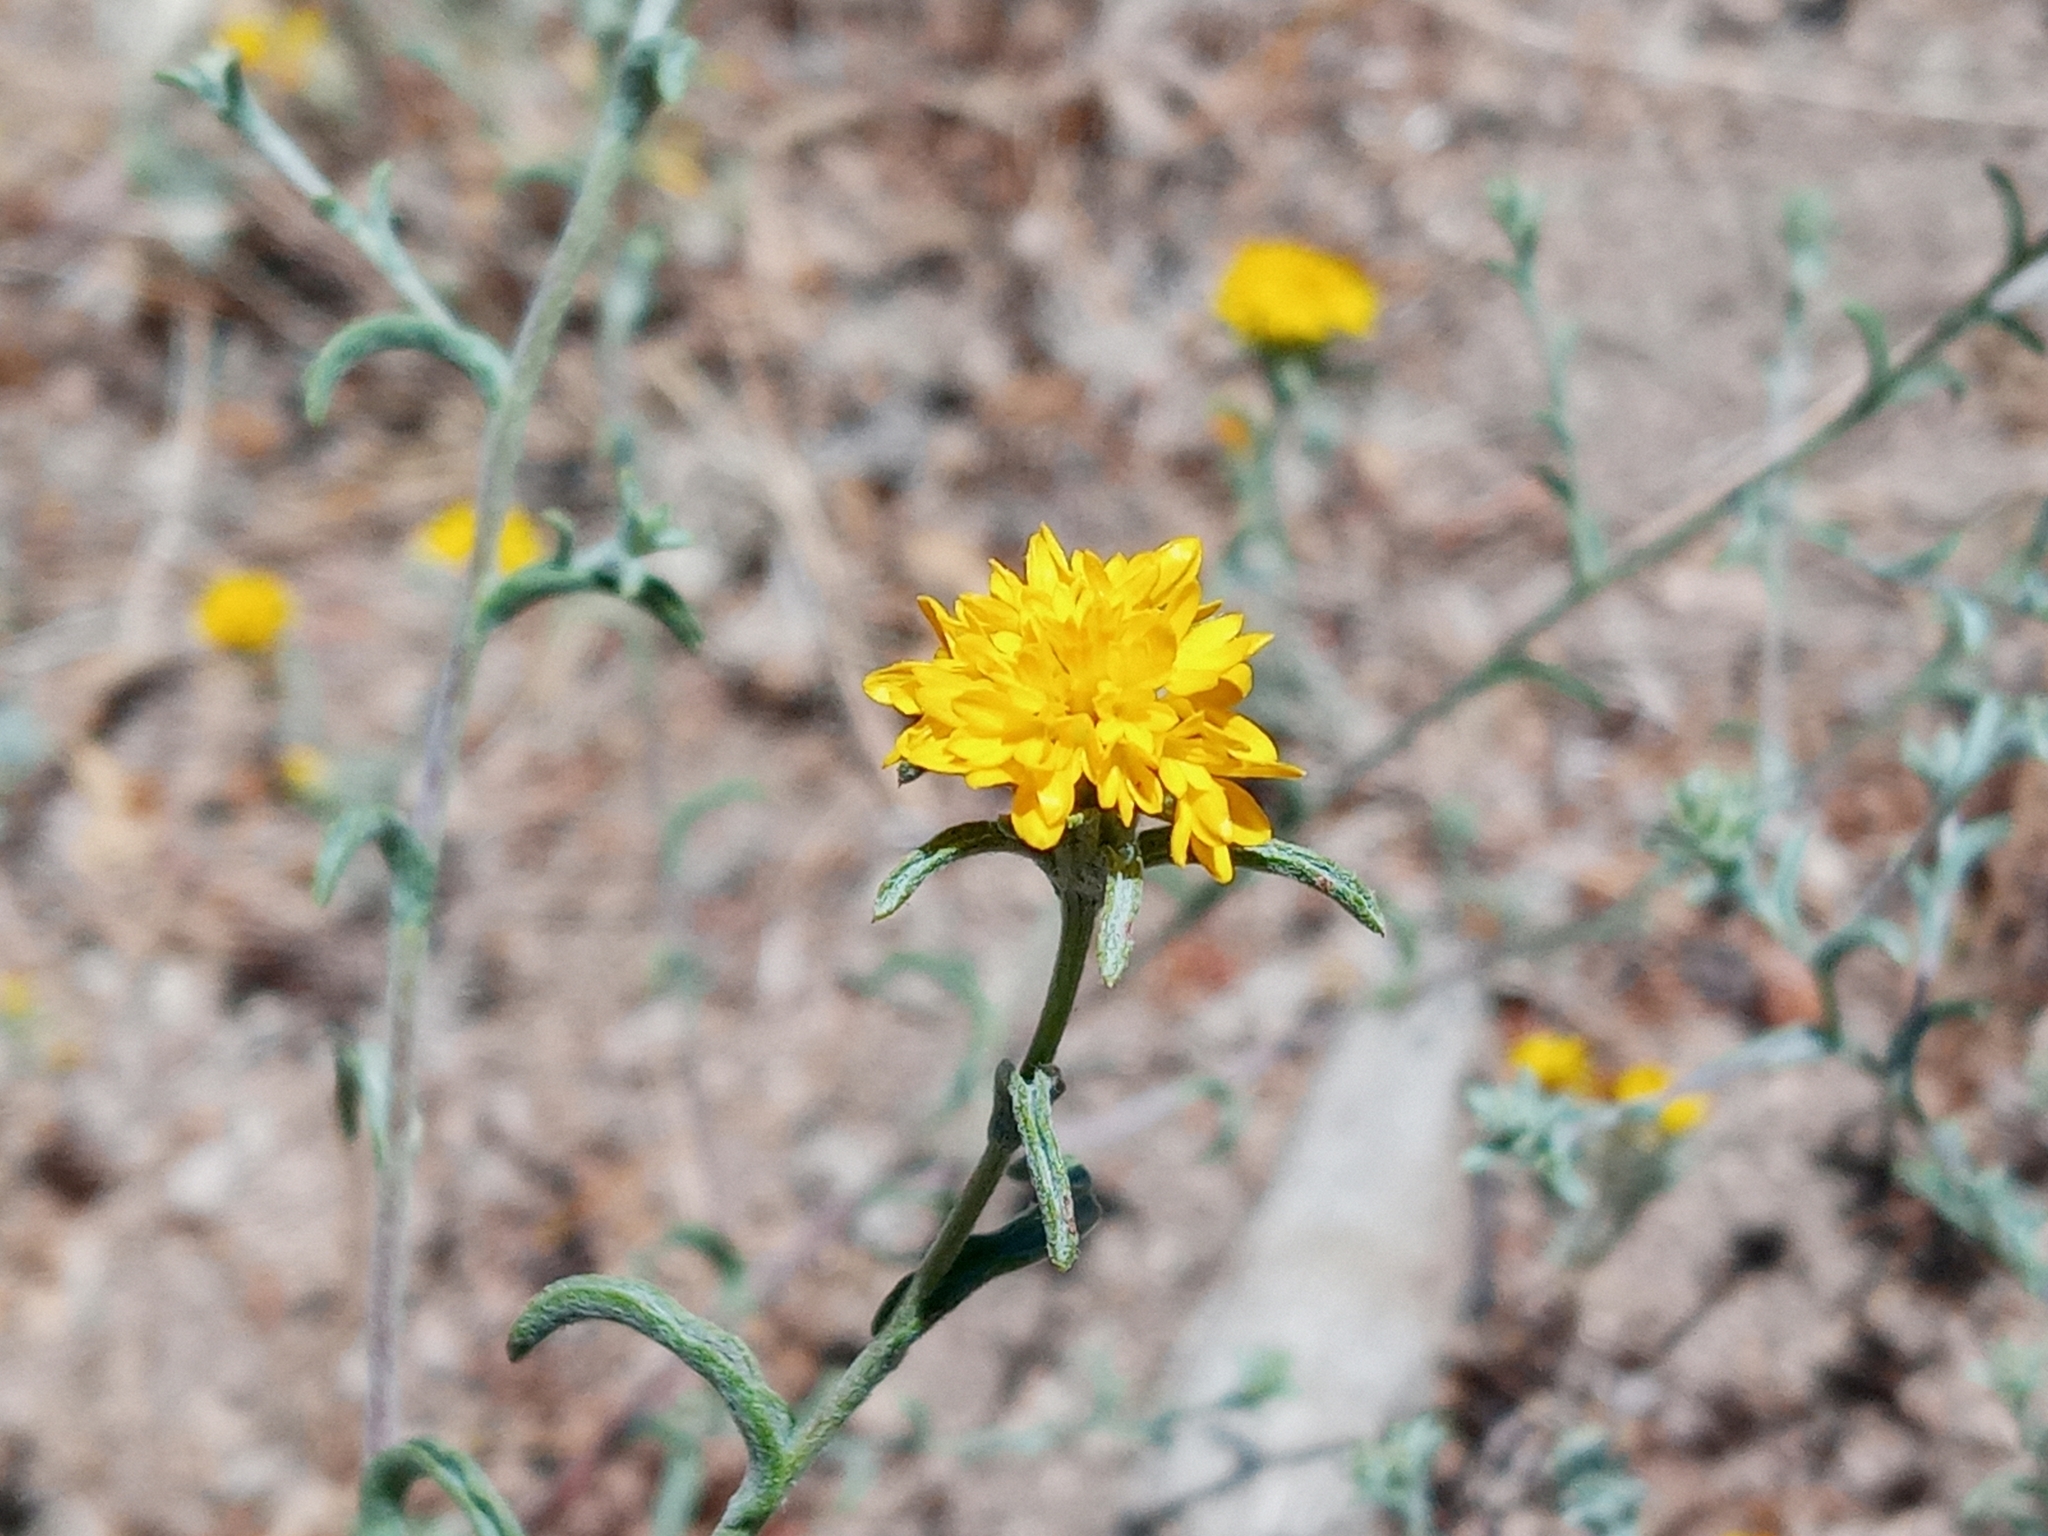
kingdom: Plantae
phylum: Tracheophyta
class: Magnoliopsida
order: Asterales
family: Asteraceae
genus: Lessingia
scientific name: Lessingia glandulifera
